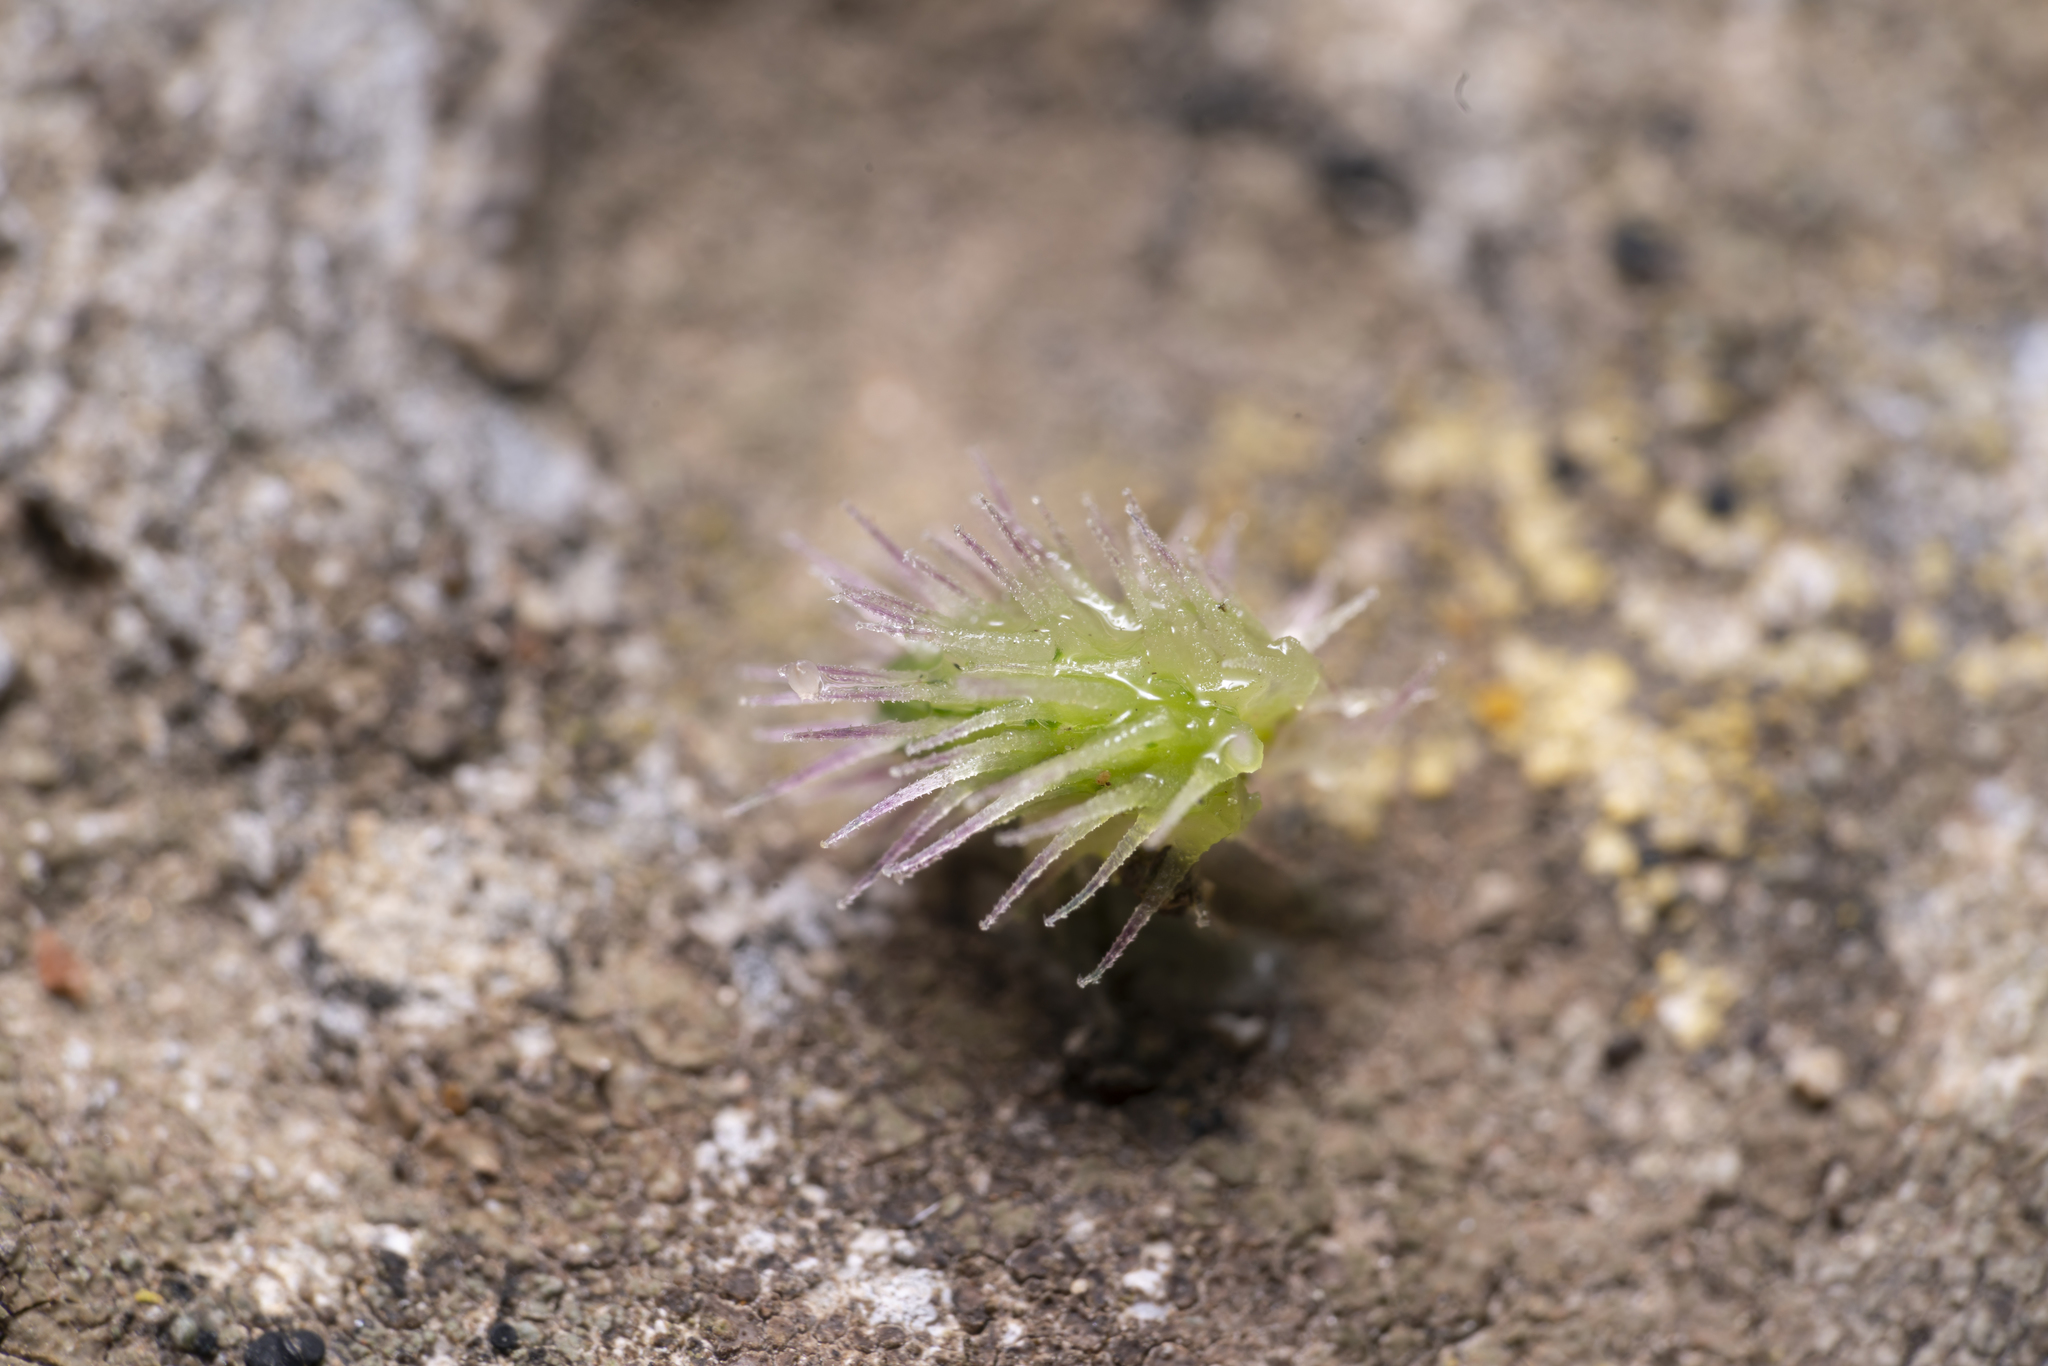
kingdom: Plantae
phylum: Tracheophyta
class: Magnoliopsida
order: Apiales
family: Apiaceae
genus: Torilis
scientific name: Torilis nodosa
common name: Knotted hedge-parsley
